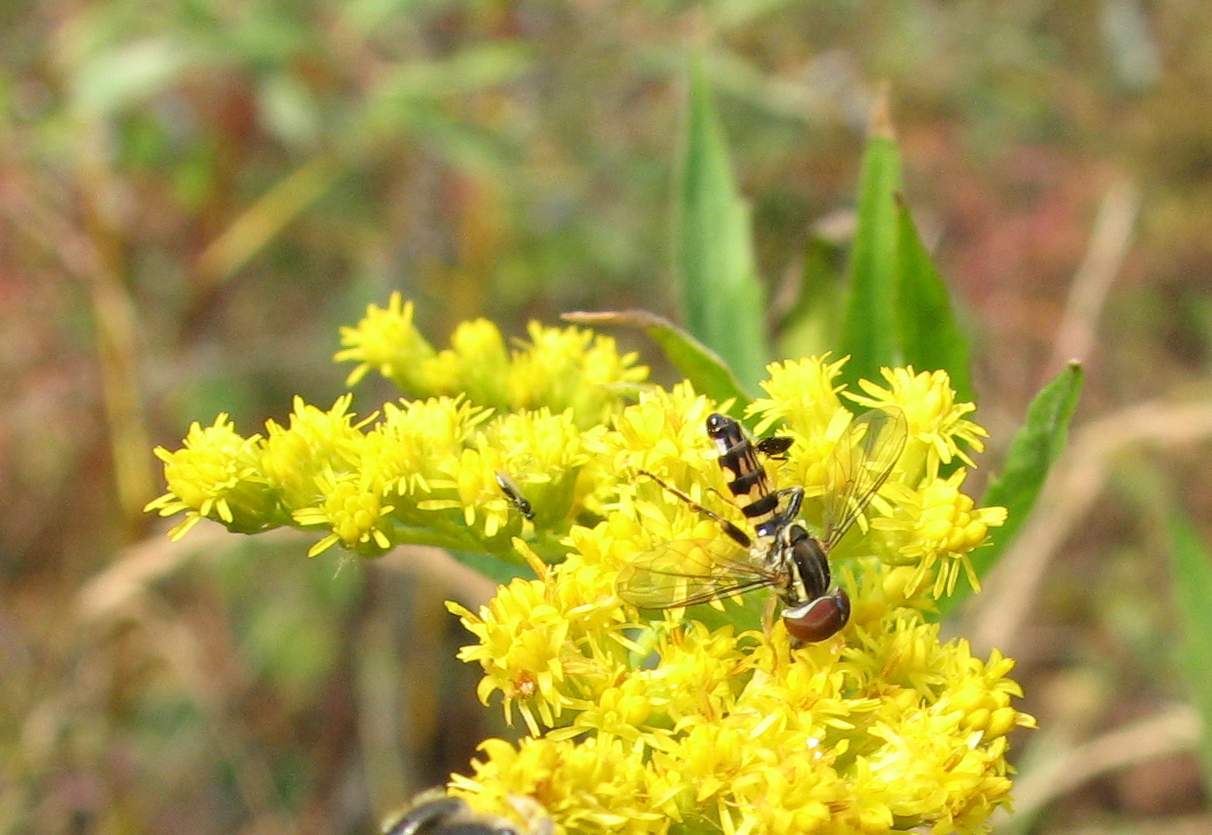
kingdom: Animalia
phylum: Arthropoda
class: Insecta
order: Diptera
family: Syrphidae
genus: Toxomerus
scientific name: Toxomerus geminatus
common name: Eastern calligrapher
